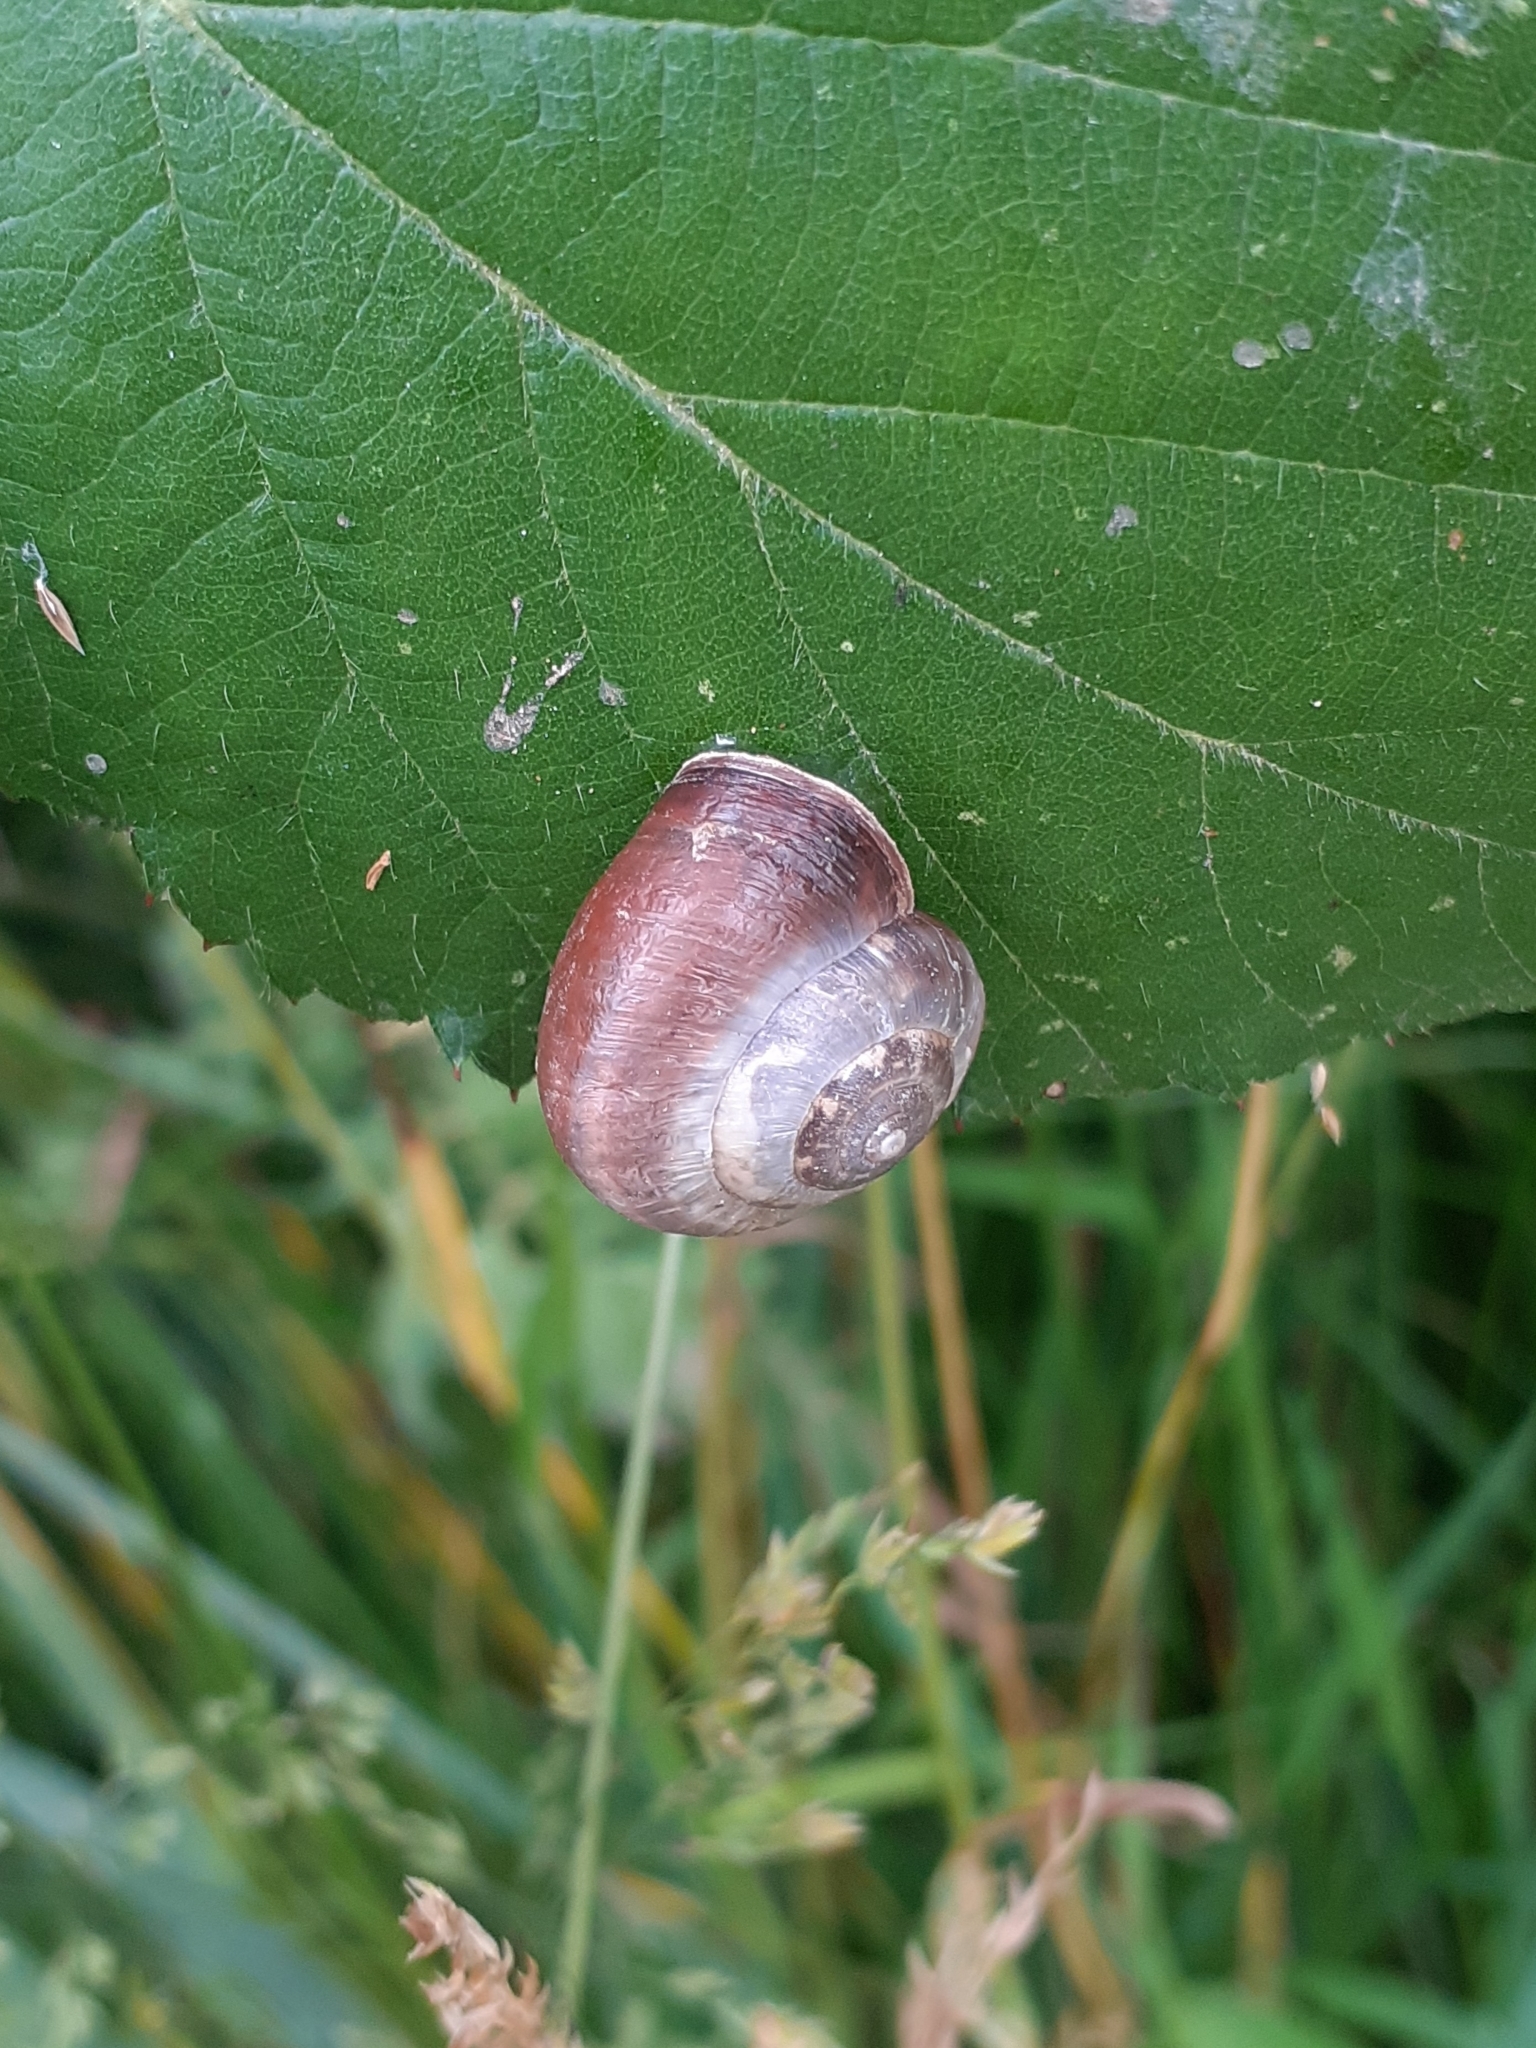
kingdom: Animalia
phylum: Mollusca
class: Gastropoda
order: Stylommatophora
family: Hygromiidae
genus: Monacha
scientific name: Monacha cantiana
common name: Kentish snail
